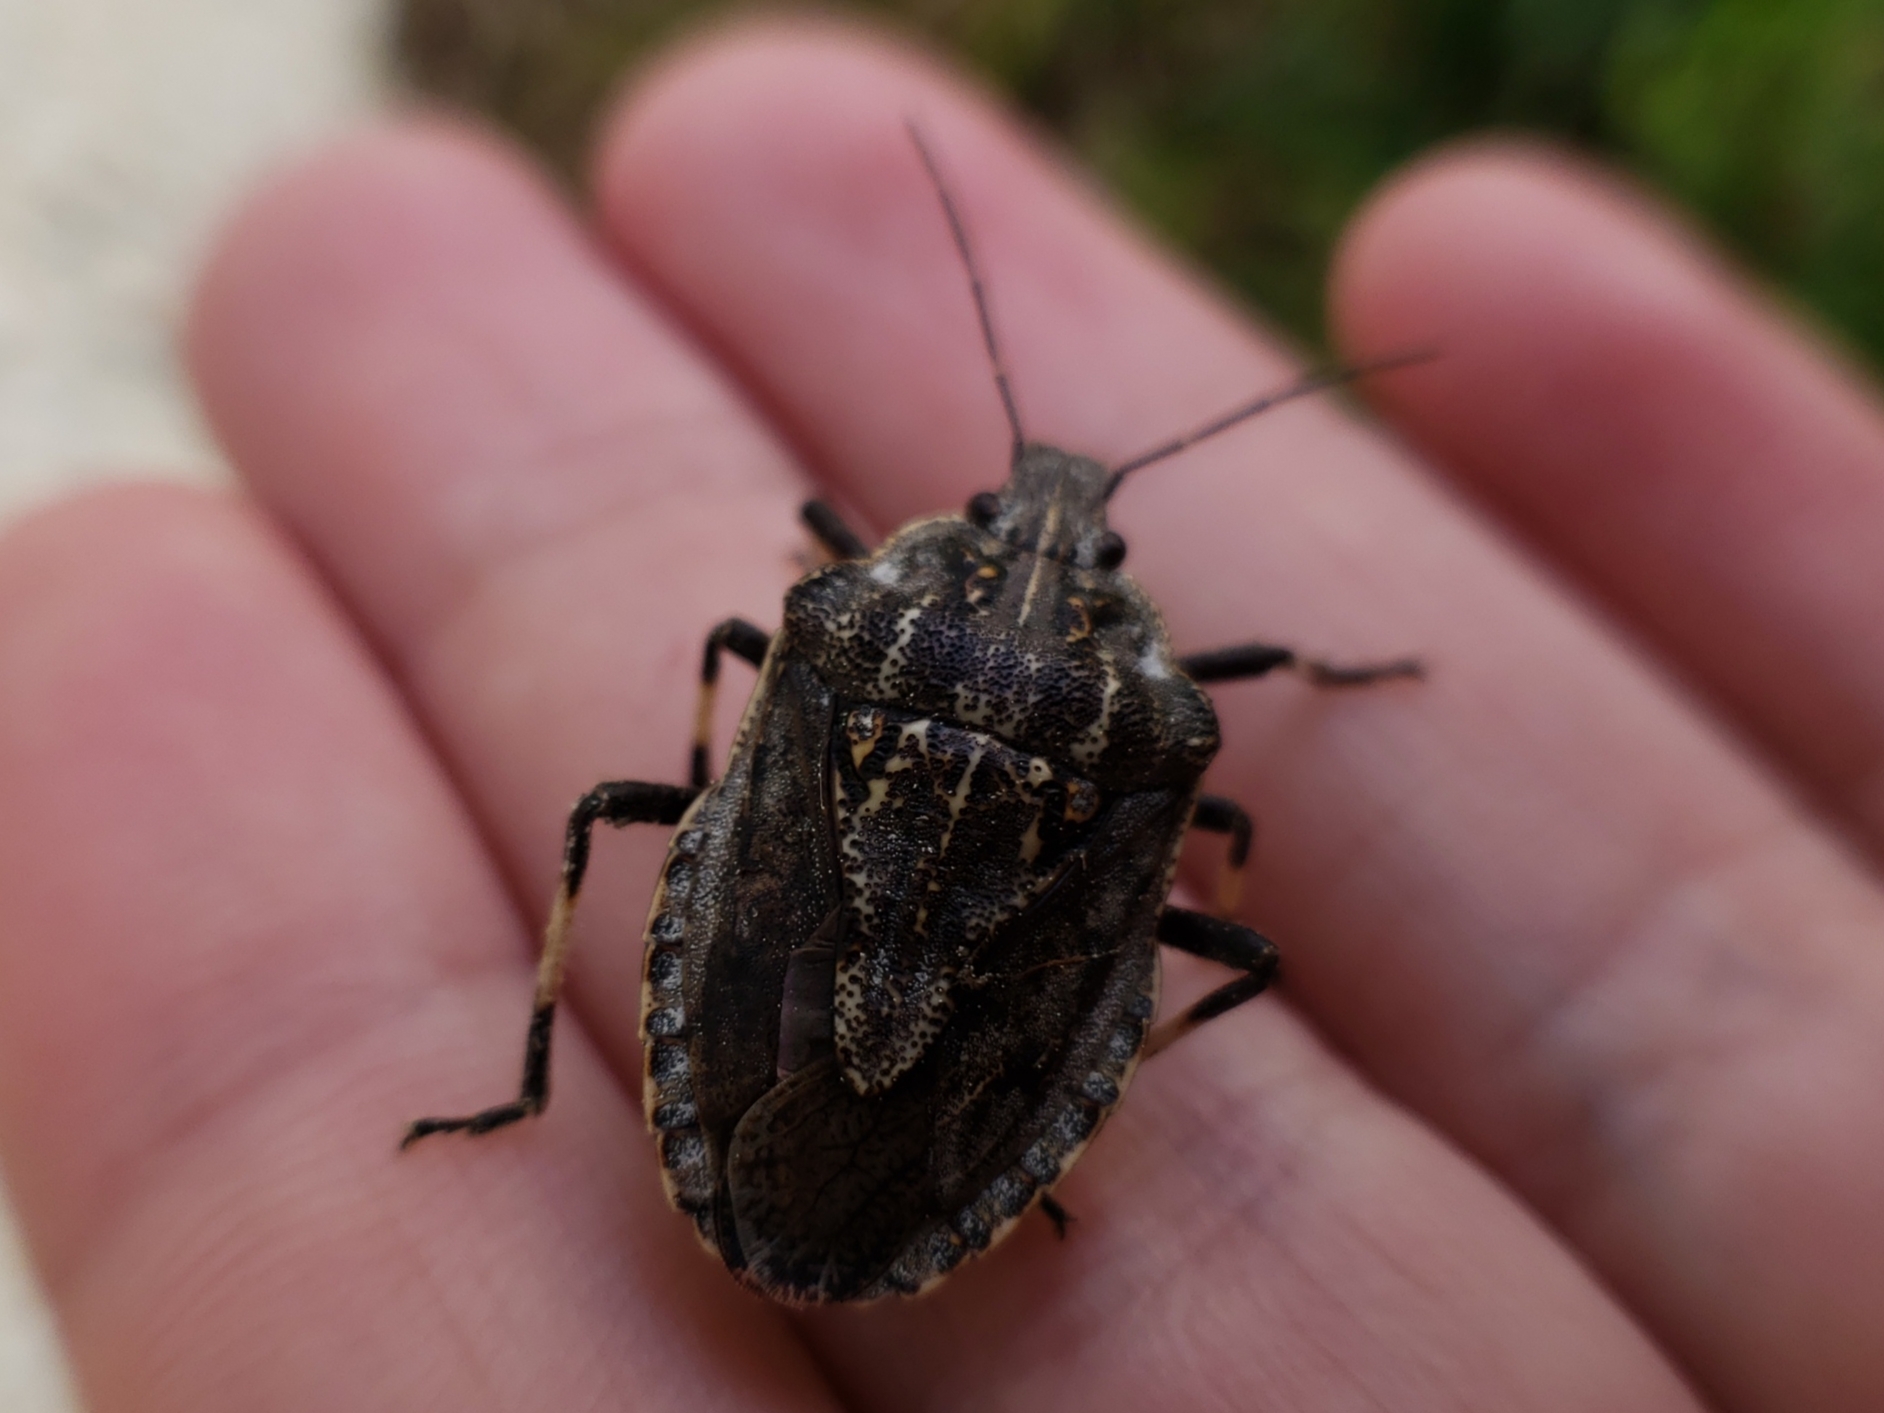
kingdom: Animalia
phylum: Arthropoda
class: Insecta
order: Hemiptera
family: Pentatomidae
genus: Brochymena
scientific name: Brochymena myops
